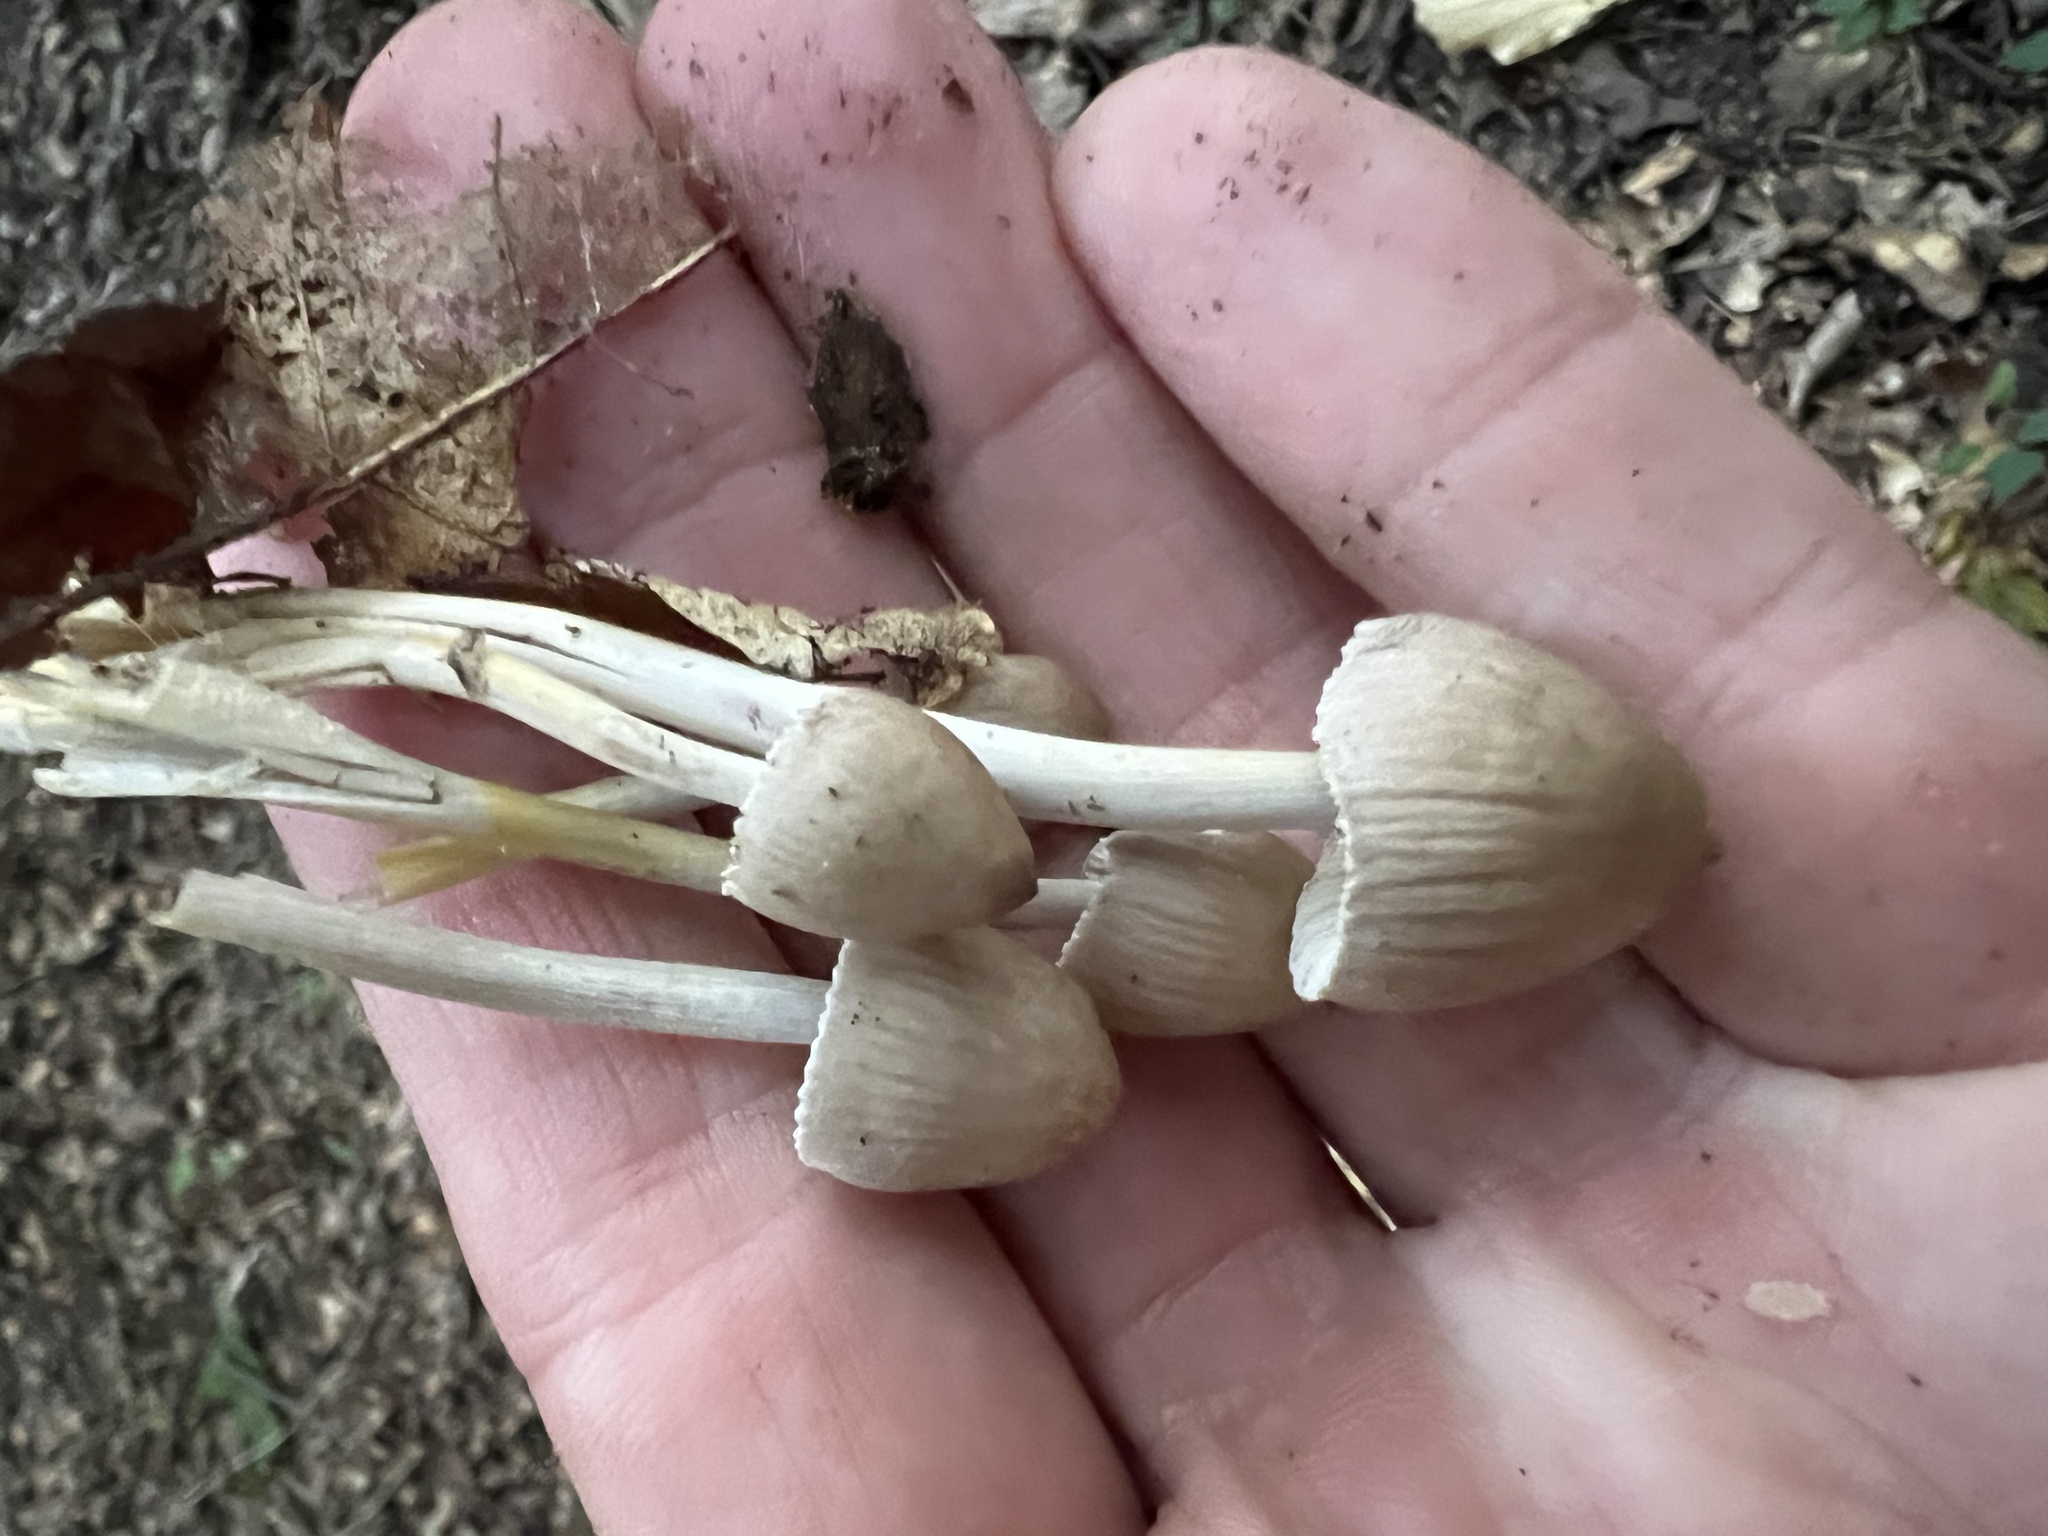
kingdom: Fungi
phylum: Basidiomycota
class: Agaricomycetes
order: Agaricales
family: Mycenaceae
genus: Mycena
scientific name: Mycena inclinata
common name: Clustered bonnet
